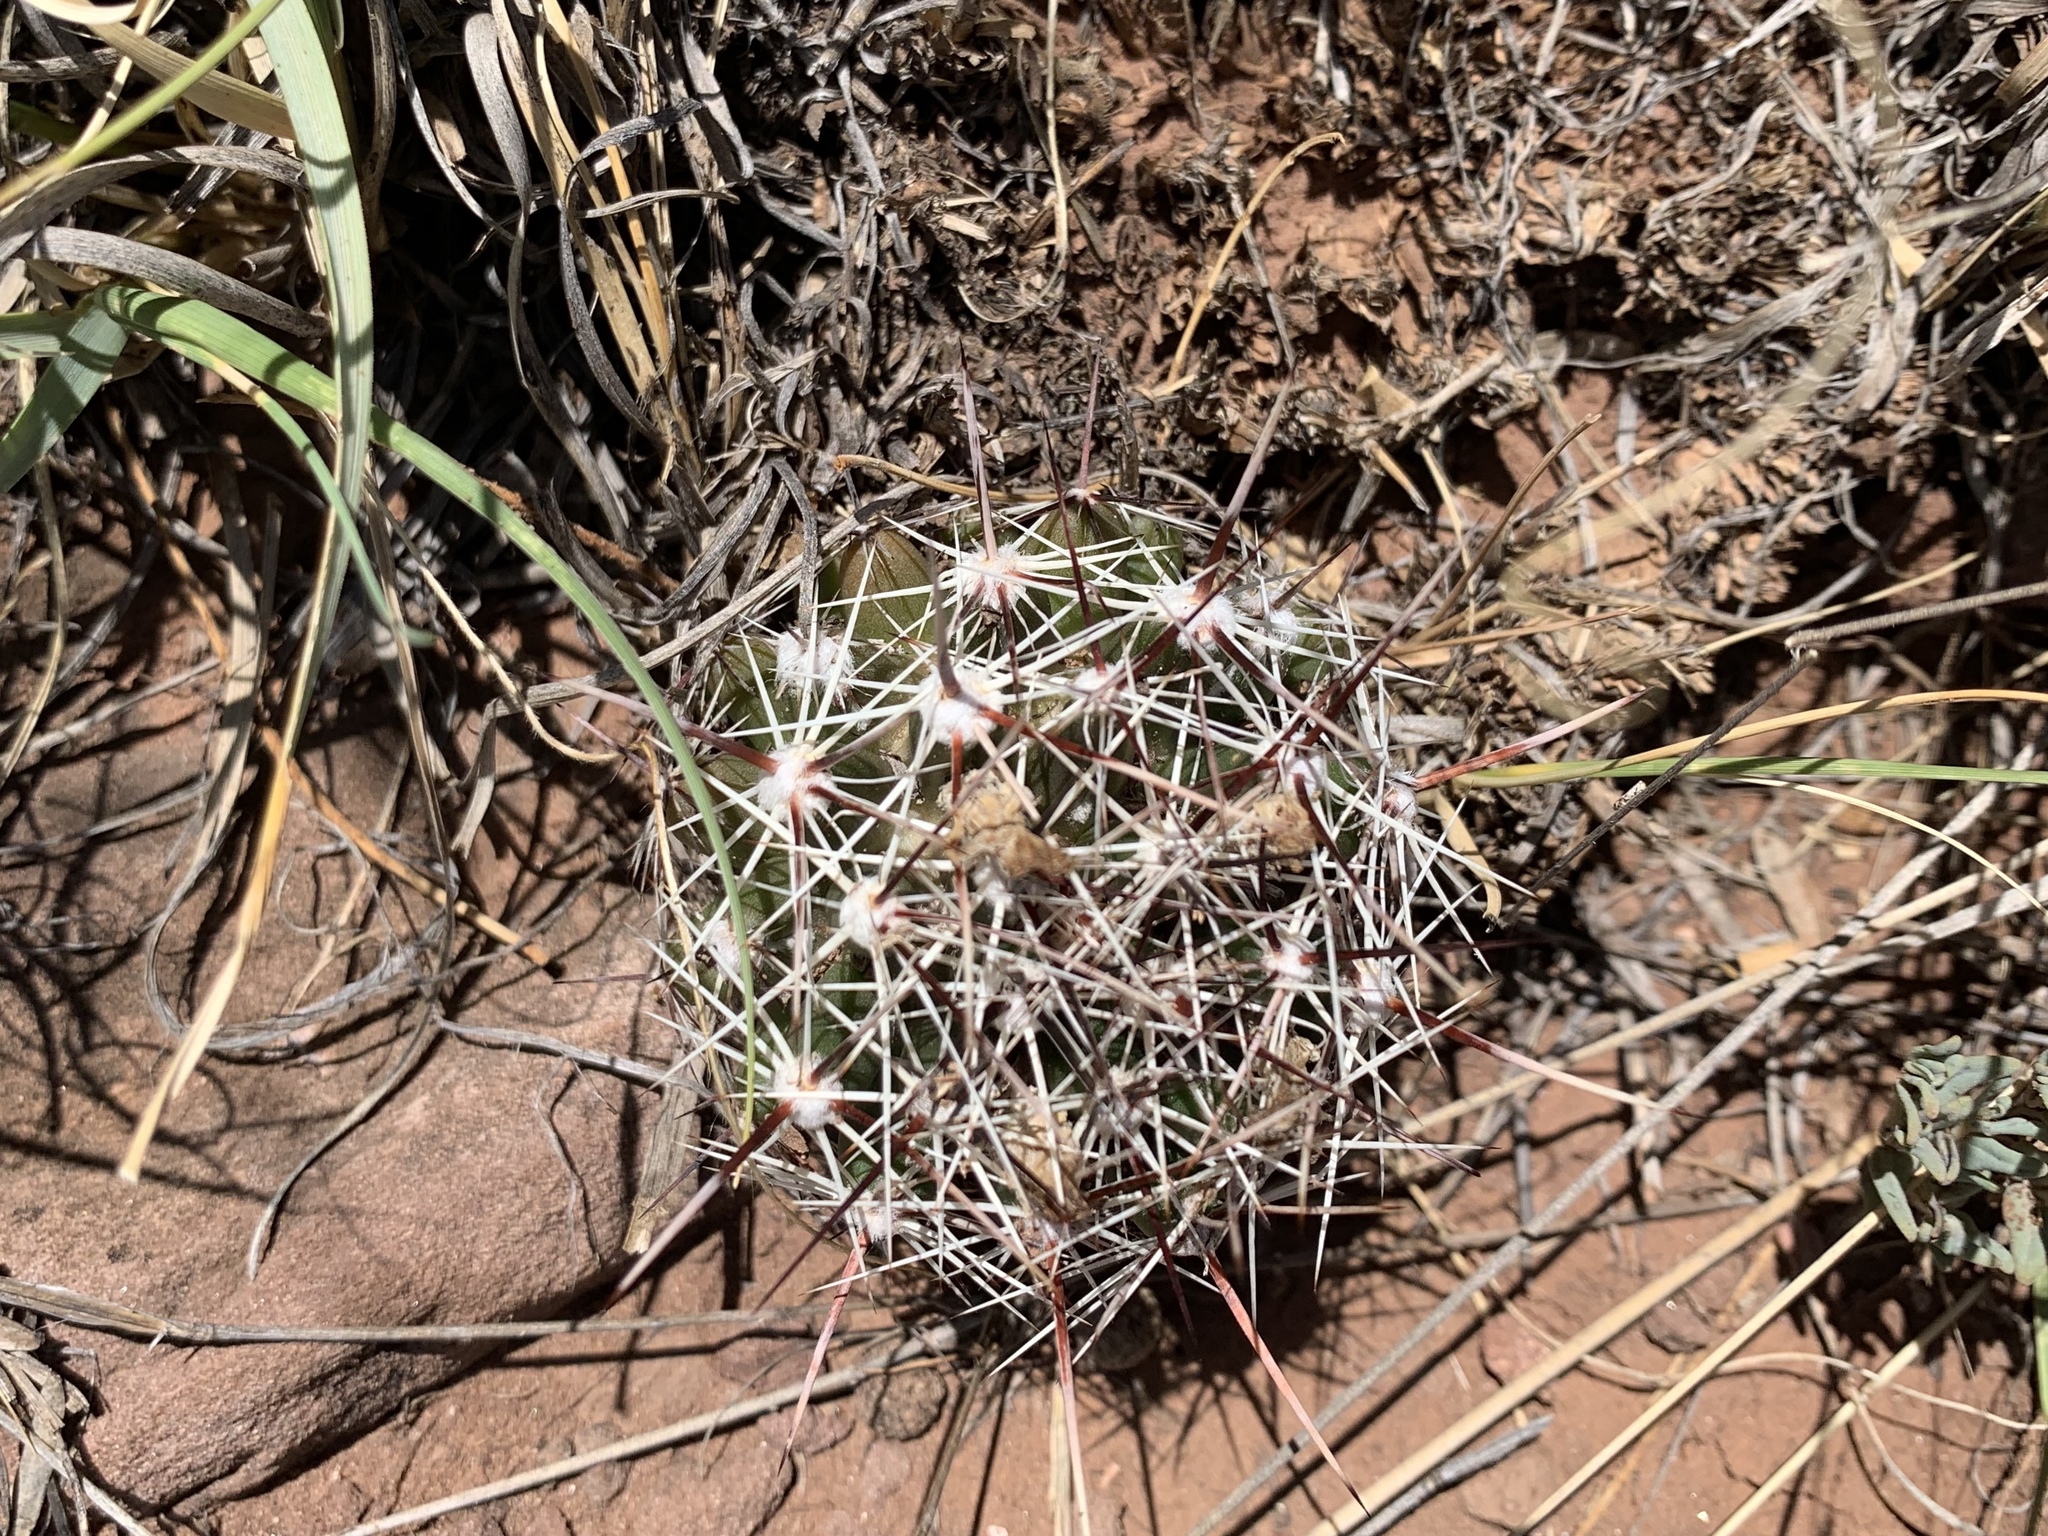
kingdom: Plantae
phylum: Tracheophyta
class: Magnoliopsida
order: Caryophyllales
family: Cactaceae
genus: Pelecyphora
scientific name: Pelecyphora vivipara
